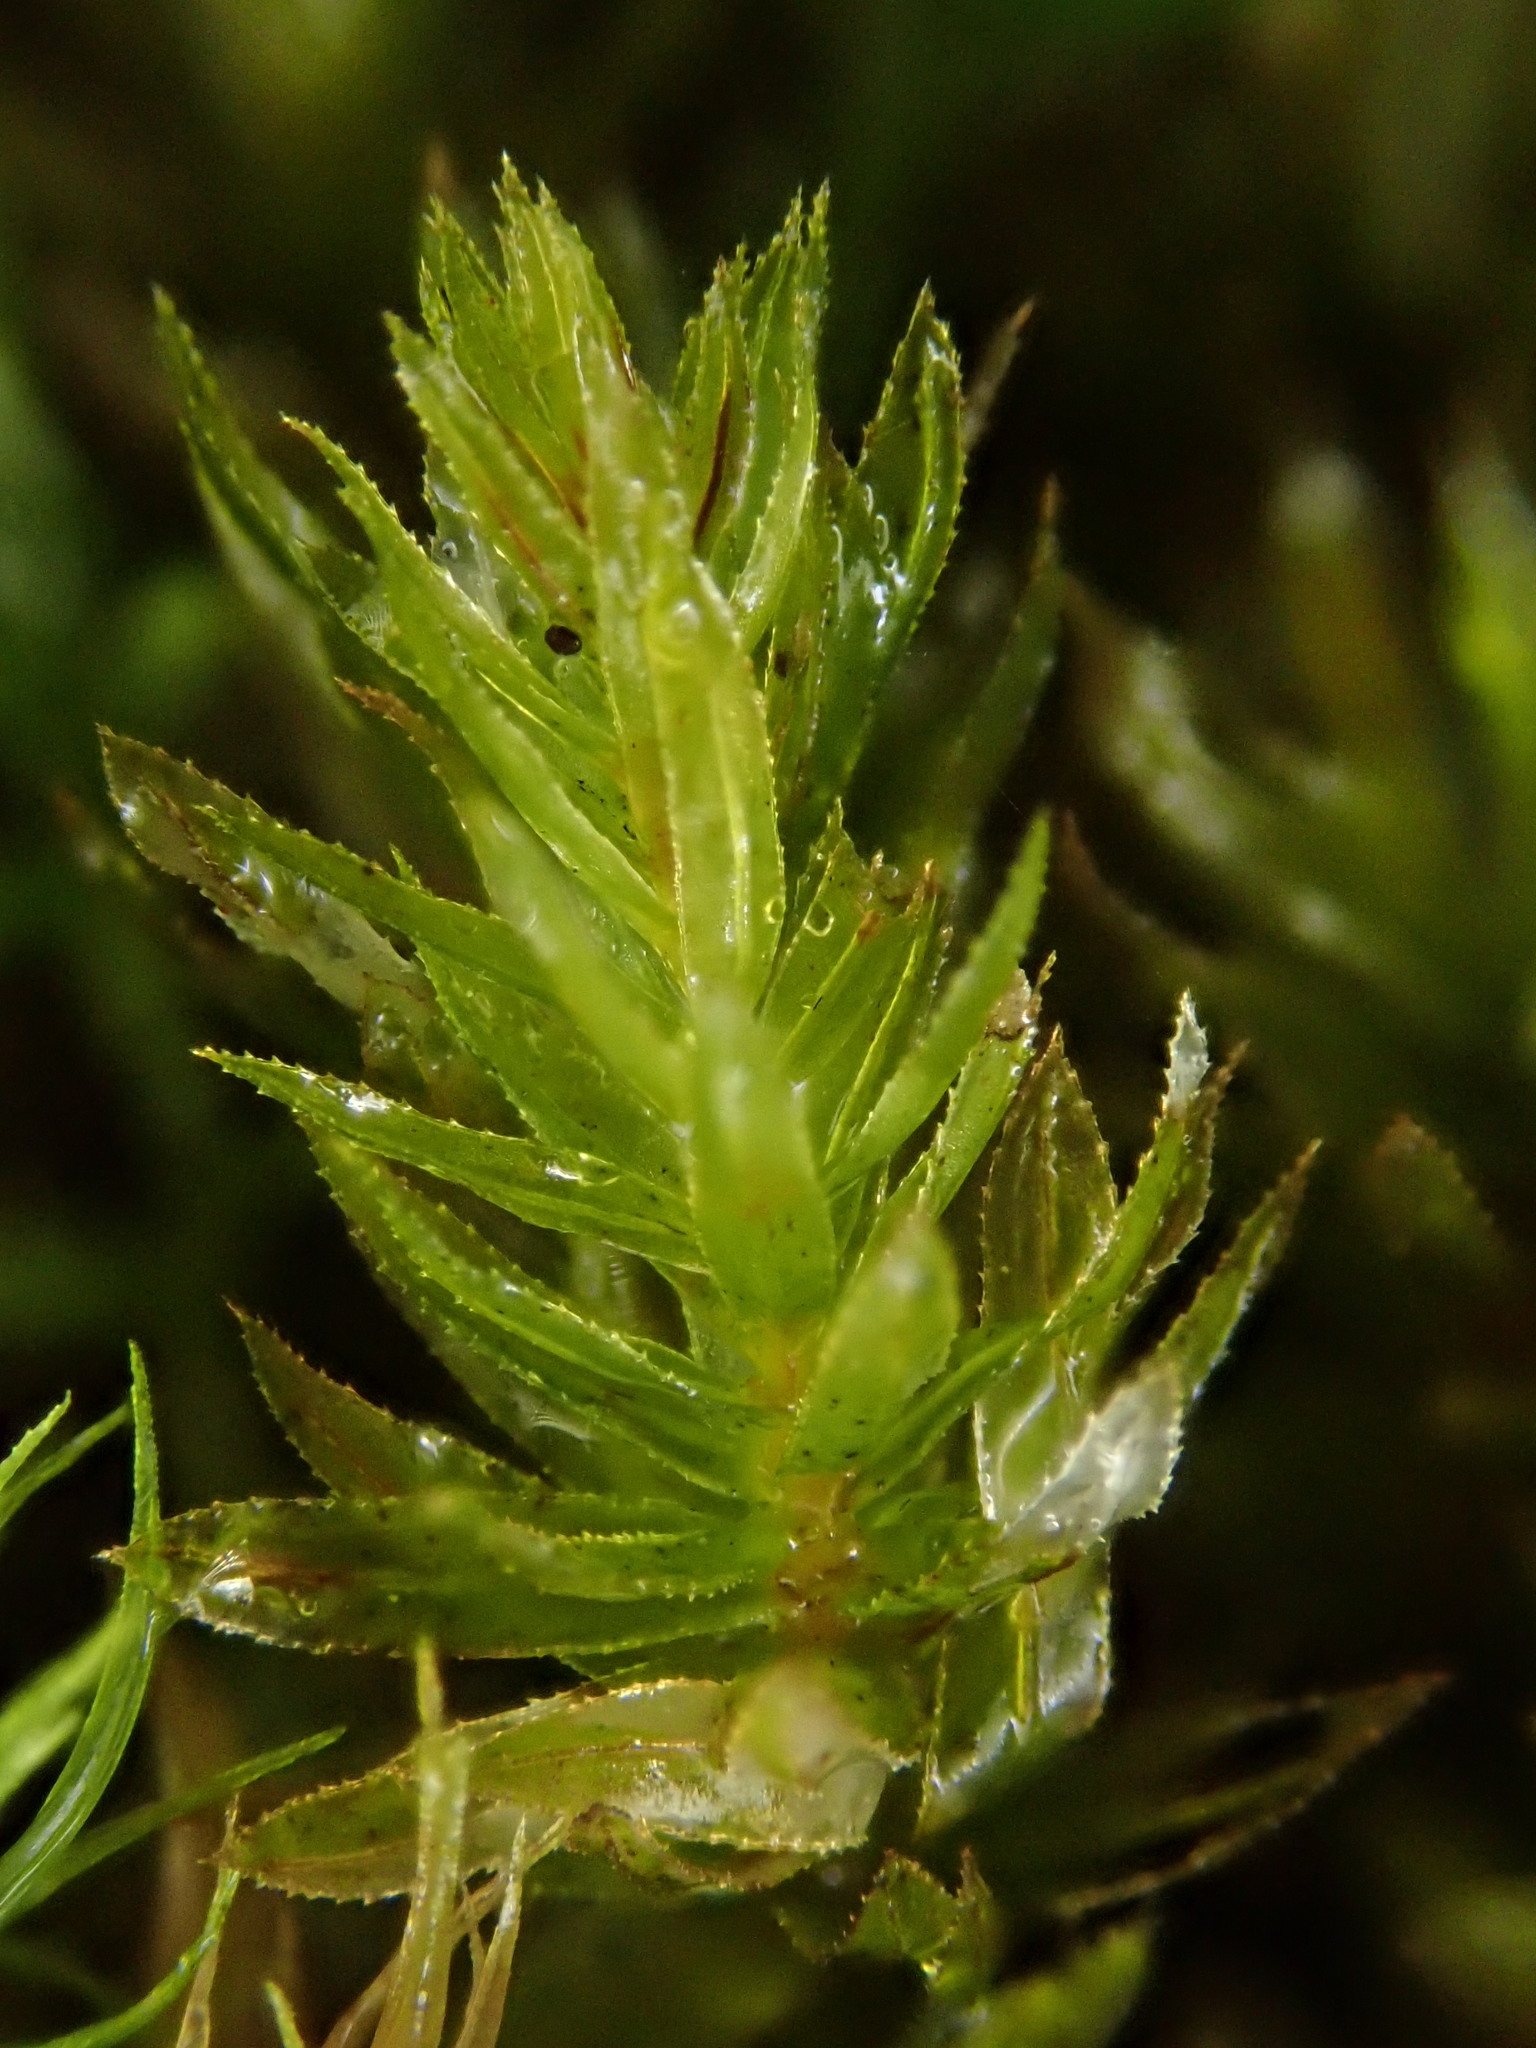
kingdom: Plantae
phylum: Bryophyta
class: Bryopsida
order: Bryales
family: Mniaceae
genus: Mnium
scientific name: Mnium hornum
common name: Swan's-neck leafy moss
